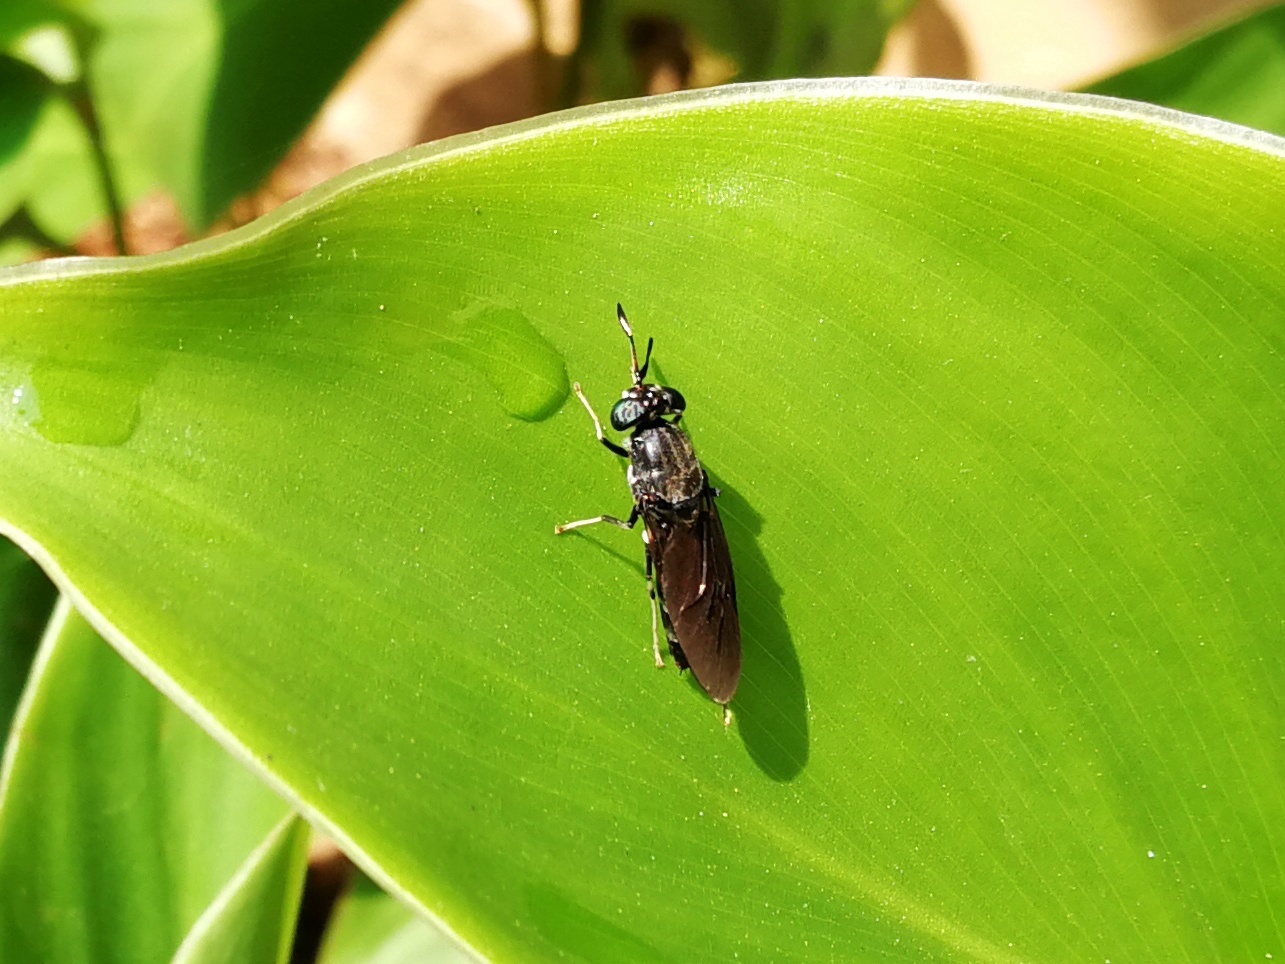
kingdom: Animalia
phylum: Arthropoda
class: Insecta
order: Diptera
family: Stratiomyidae
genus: Hermetia
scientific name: Hermetia illucens
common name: Black soldier fly
